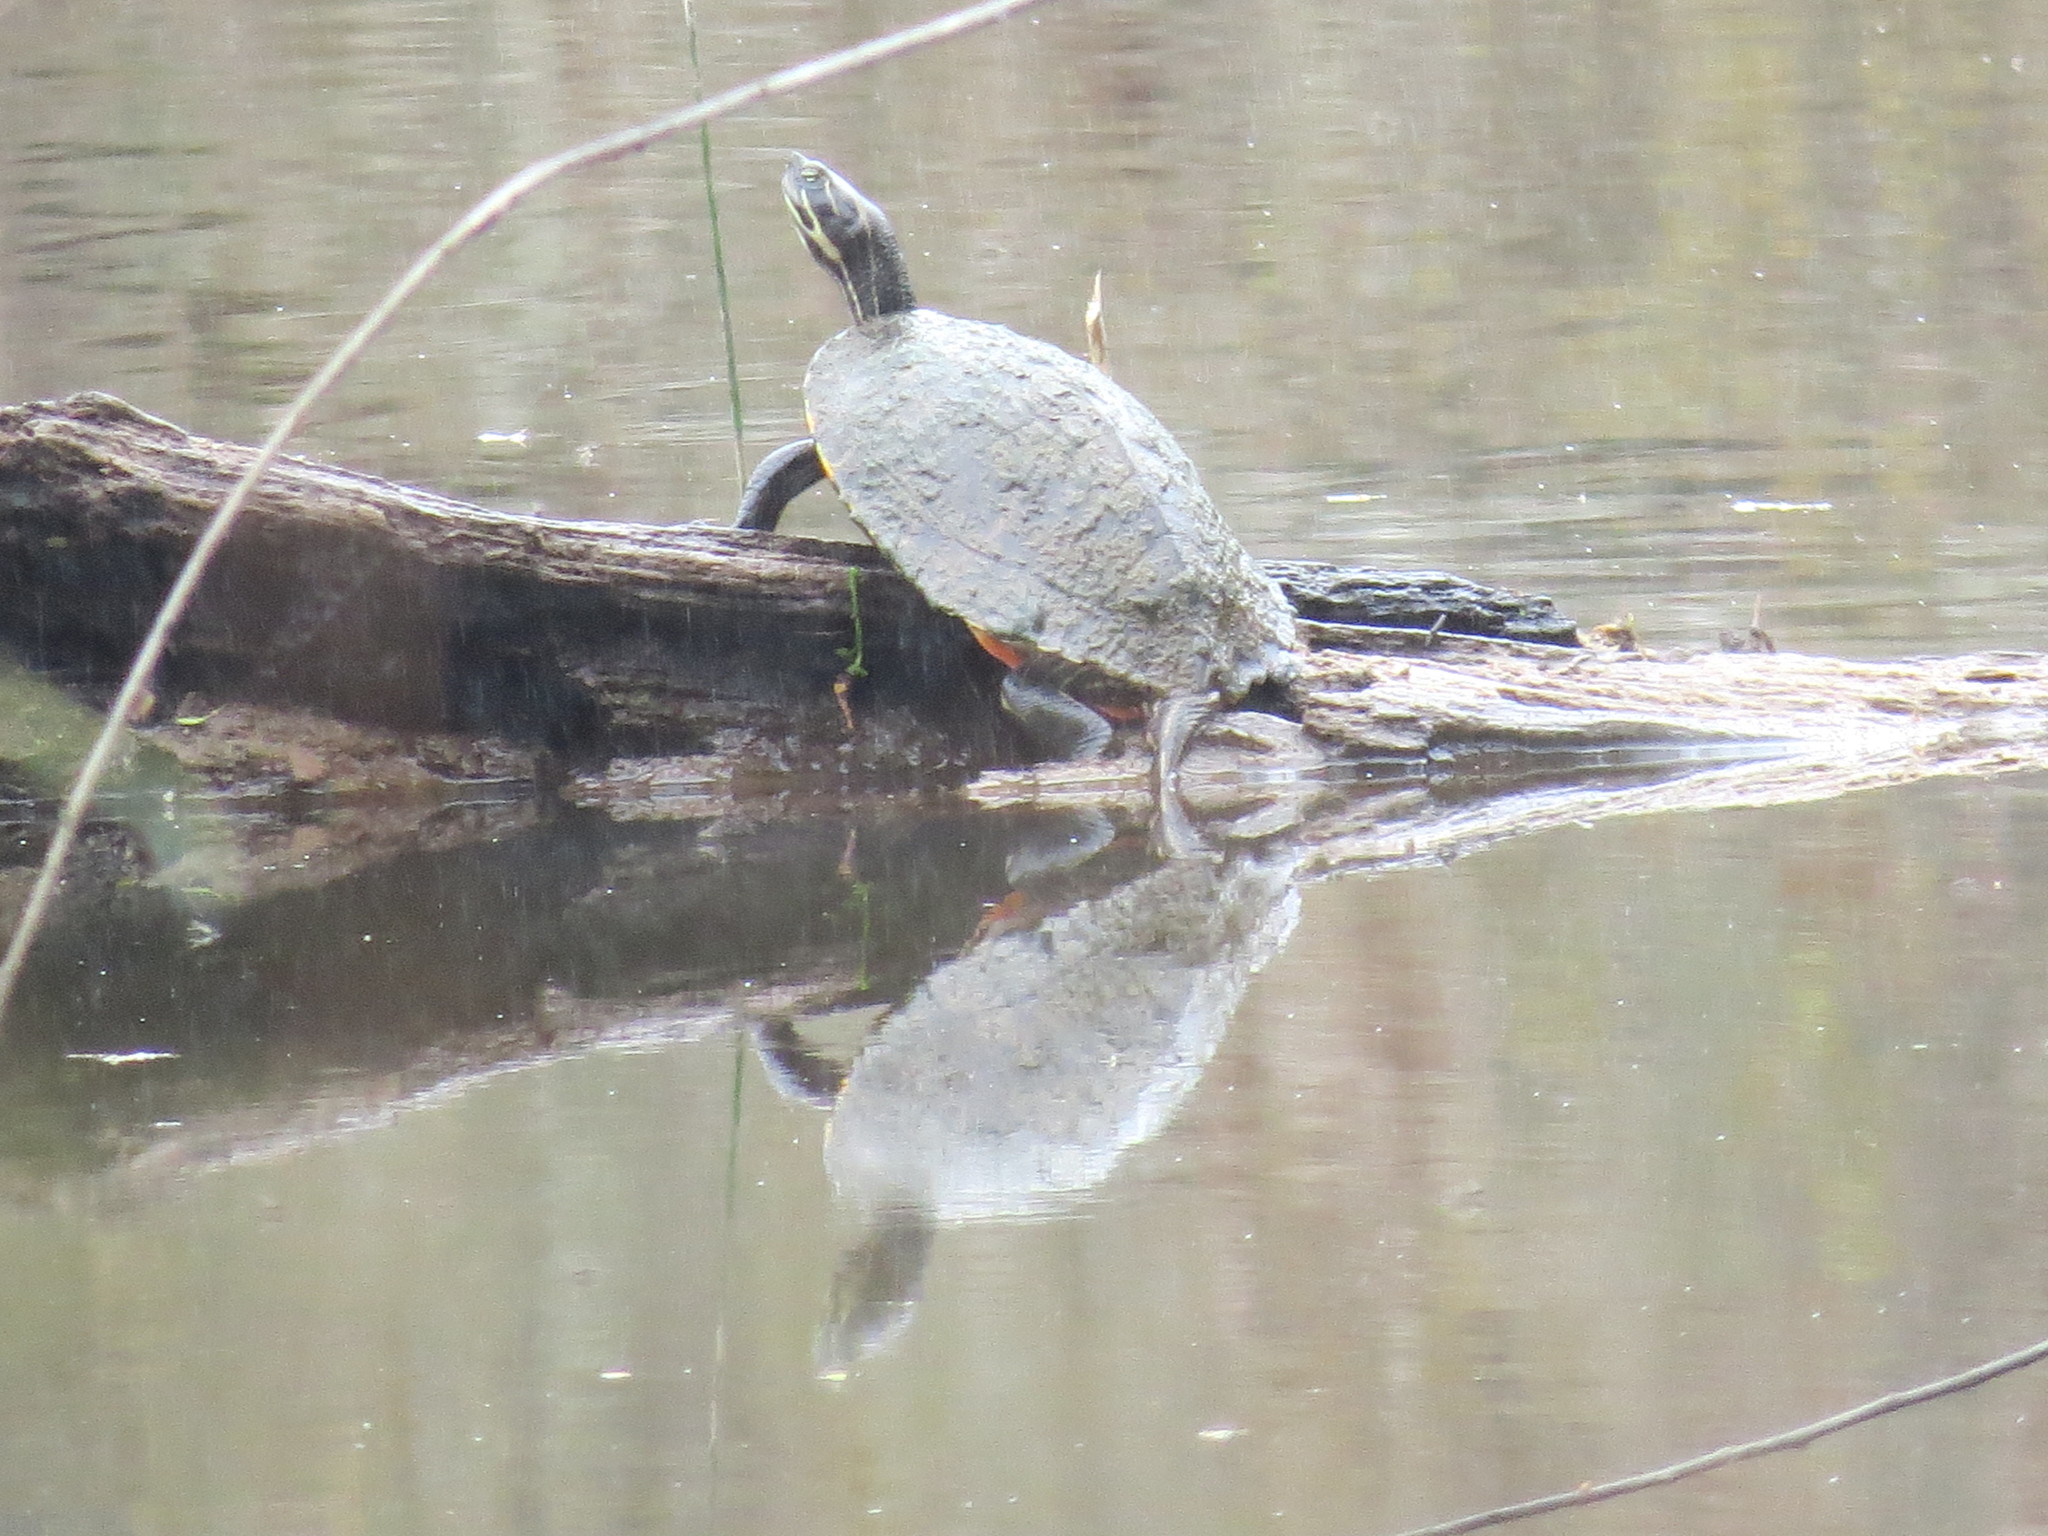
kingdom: Animalia
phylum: Chordata
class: Testudines
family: Emydidae
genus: Pseudemys
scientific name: Pseudemys concinna
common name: Eastern river cooter
